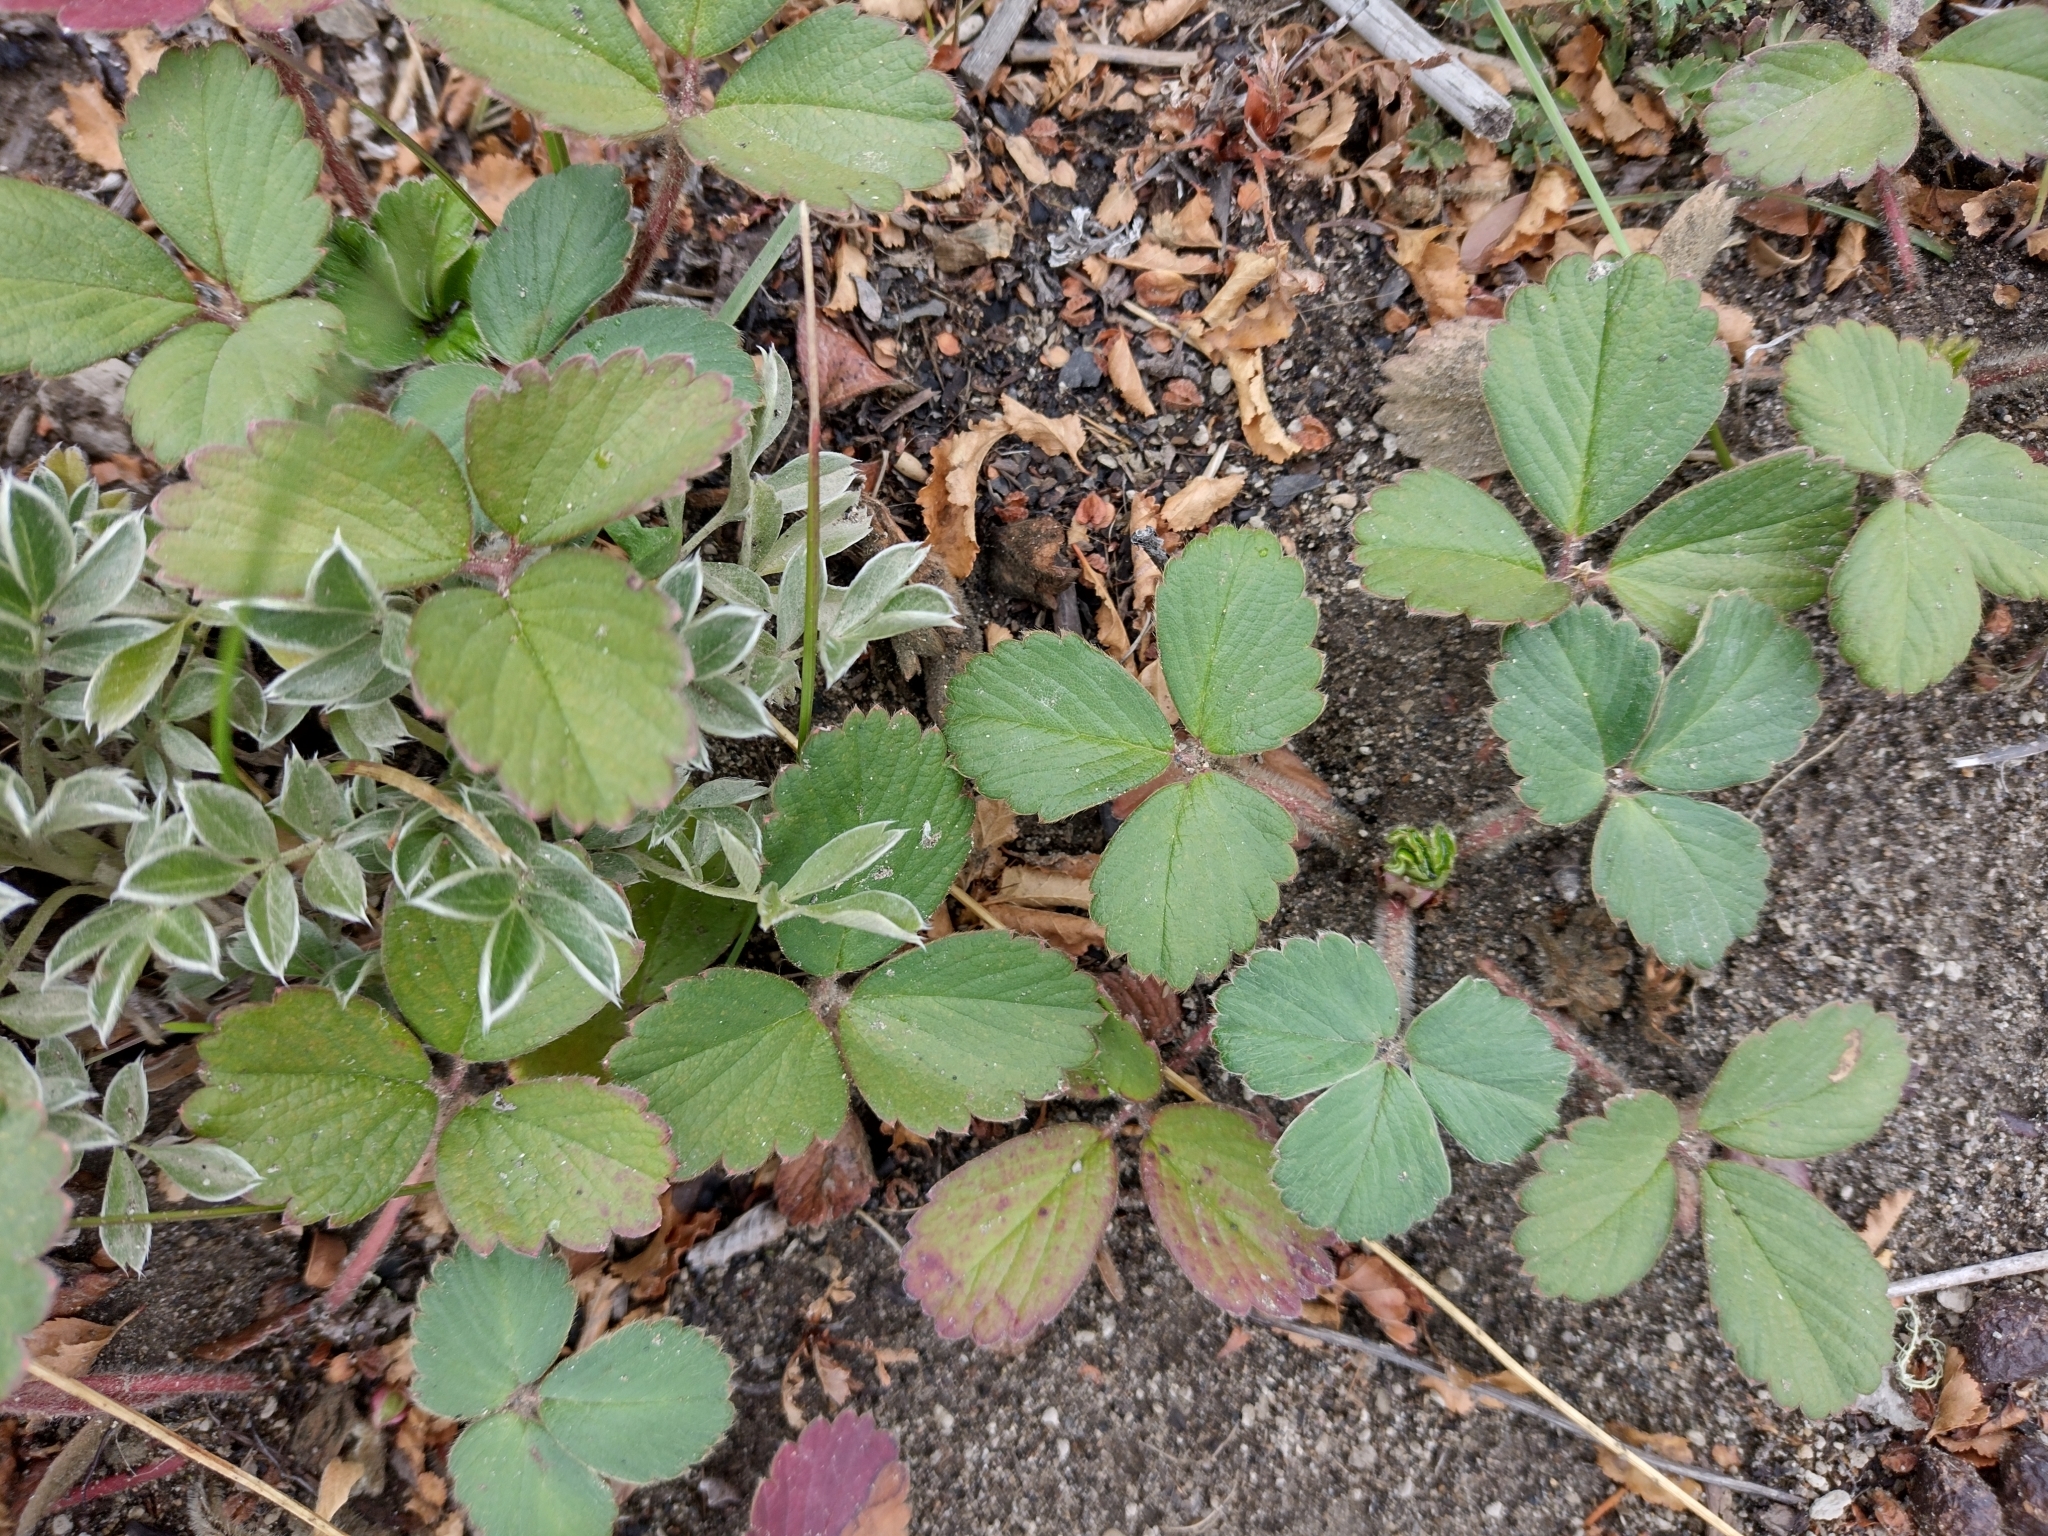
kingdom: Plantae
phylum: Tracheophyta
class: Magnoliopsida
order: Rosales
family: Rosaceae
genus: Fragaria
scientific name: Fragaria chiloensis
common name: Beach strawberry
